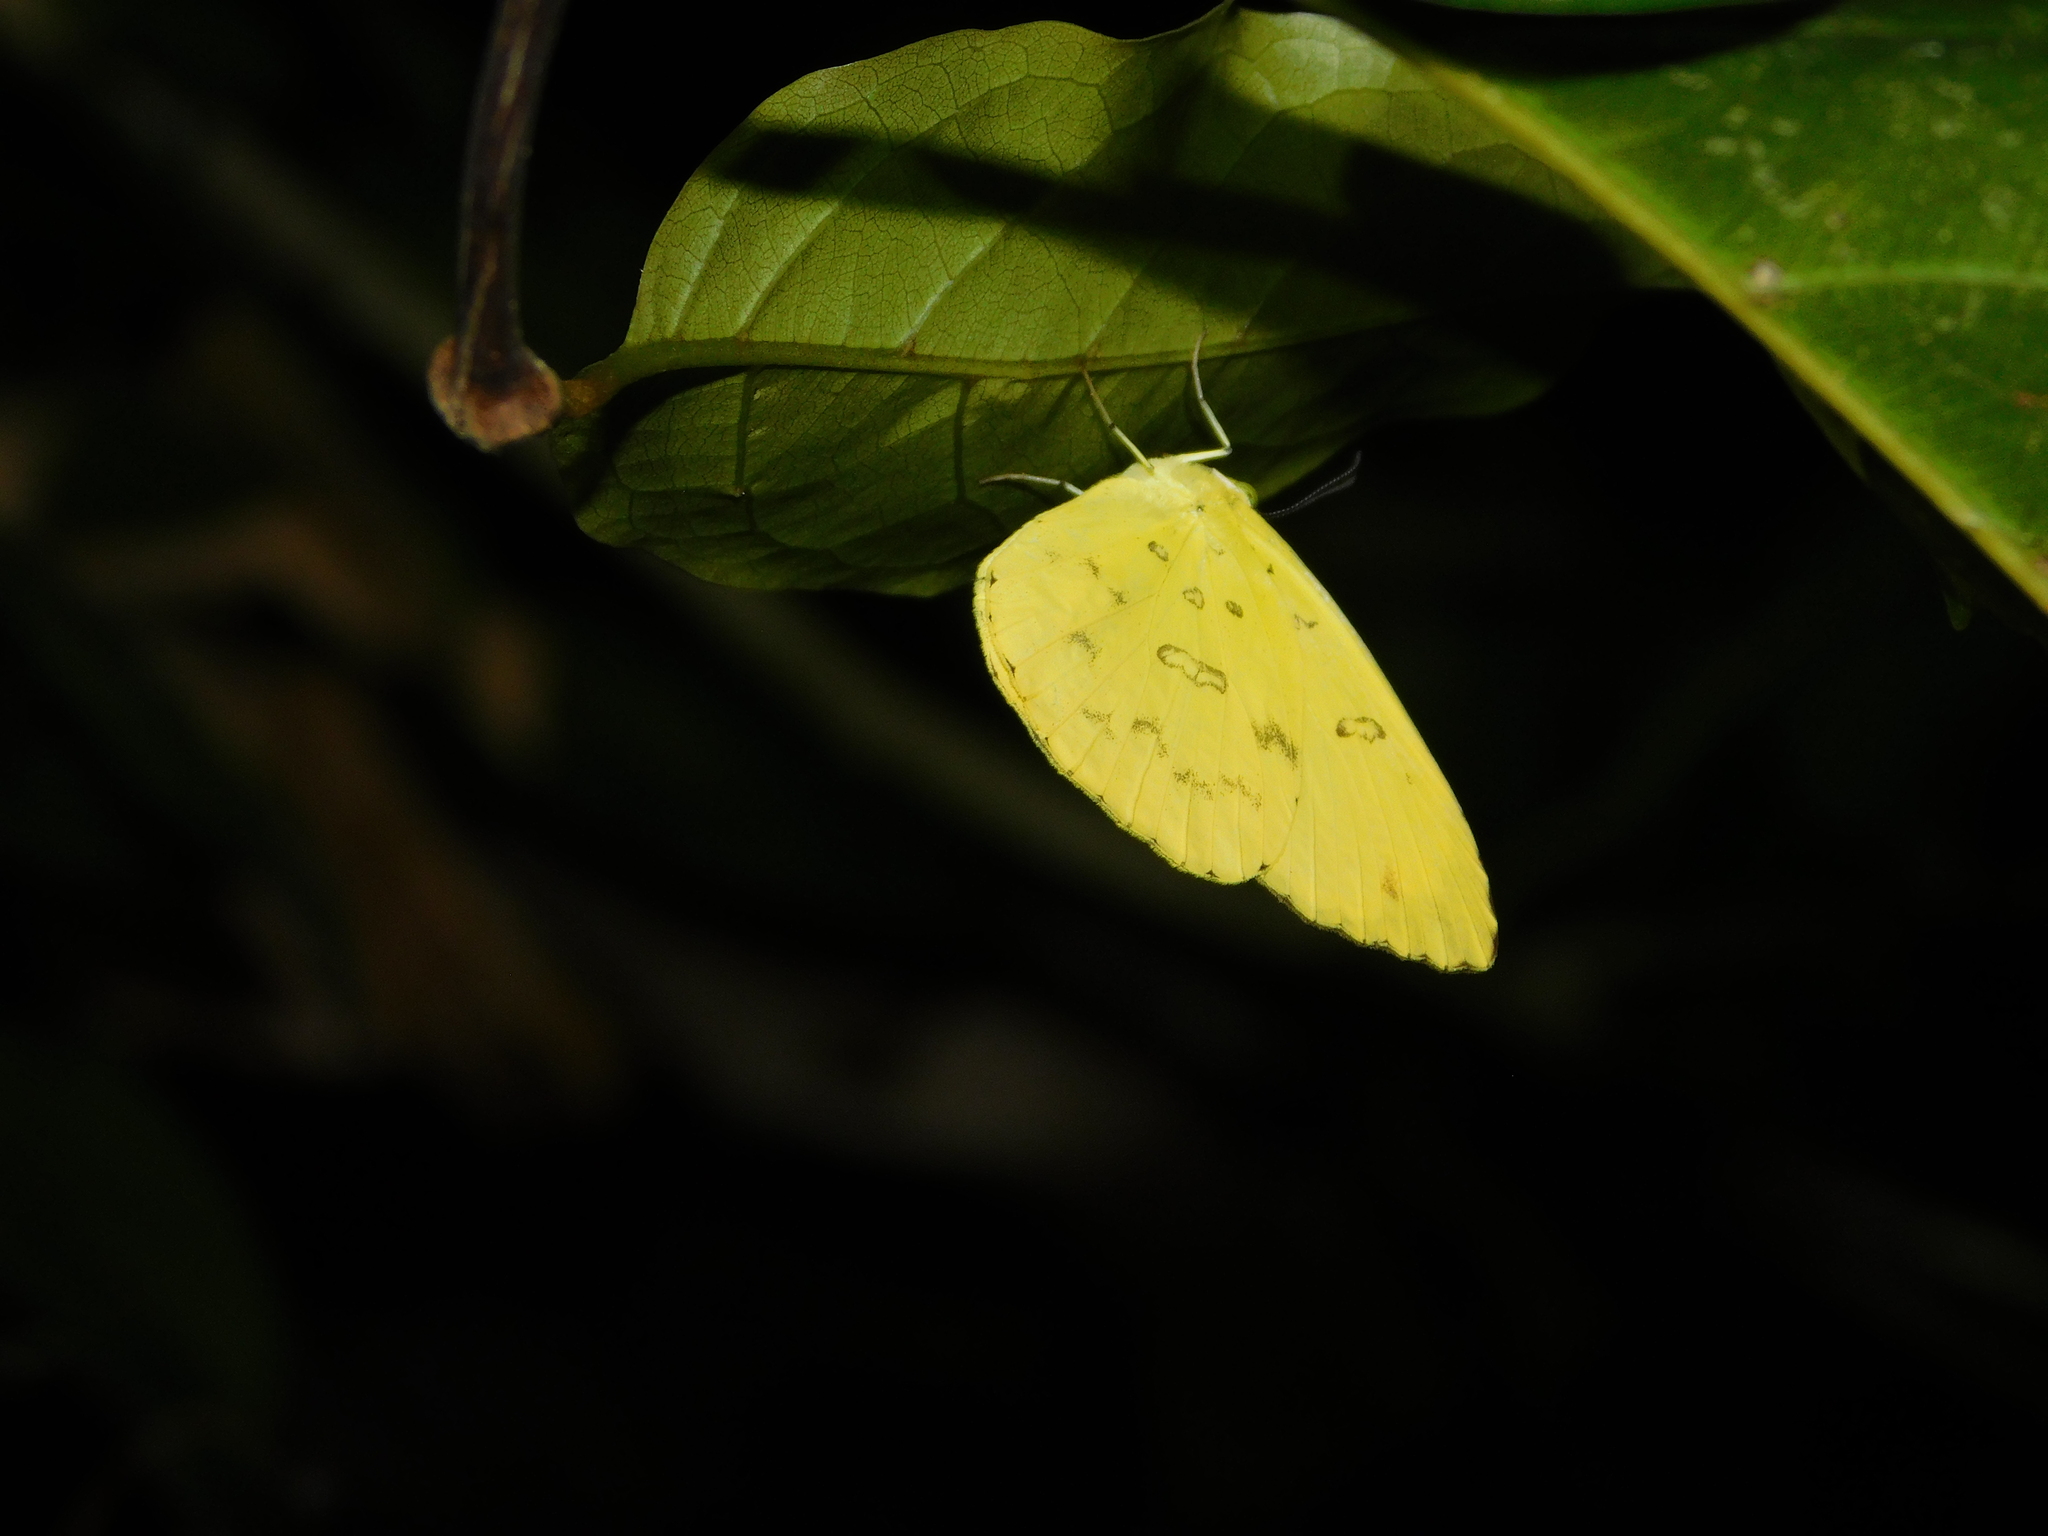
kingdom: Animalia
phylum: Arthropoda
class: Insecta
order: Lepidoptera
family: Pieridae
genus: Eurema
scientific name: Eurema blanda
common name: Three-spot grass yellow
